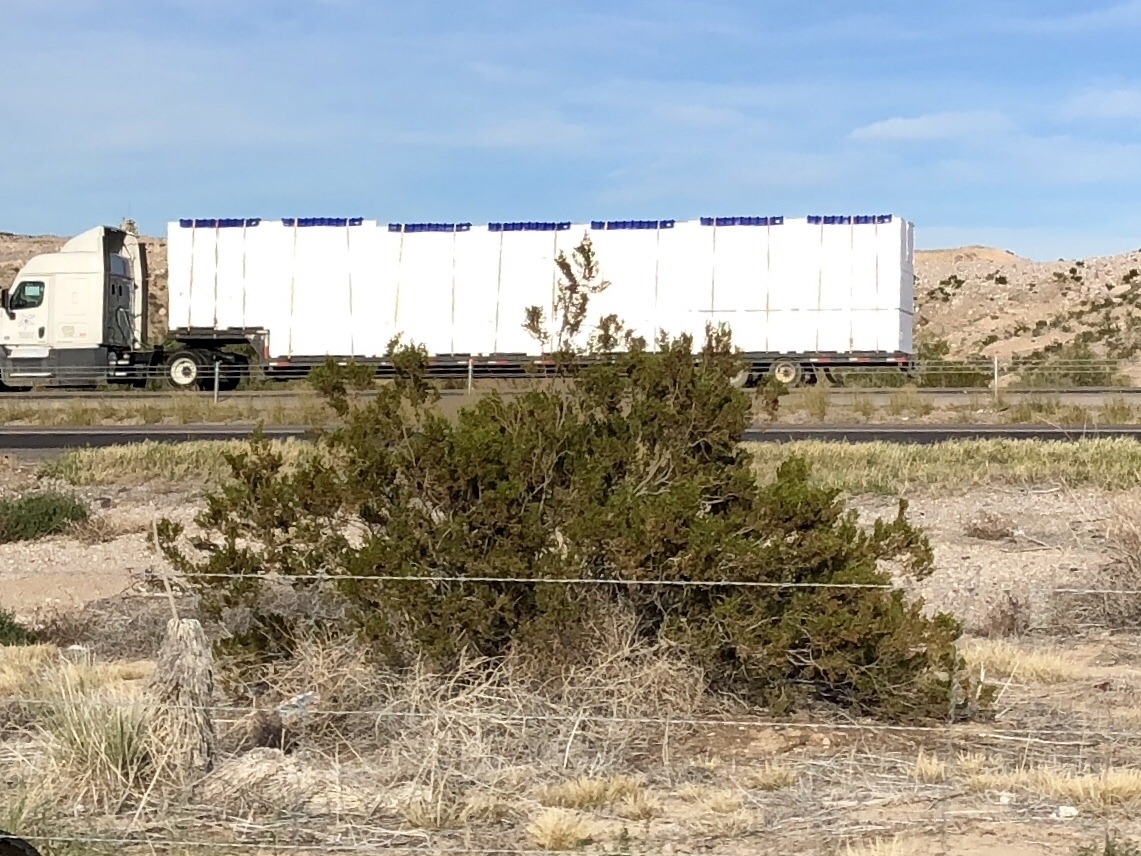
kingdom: Plantae
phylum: Tracheophyta
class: Magnoliopsida
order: Zygophyllales
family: Zygophyllaceae
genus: Larrea
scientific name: Larrea tridentata
